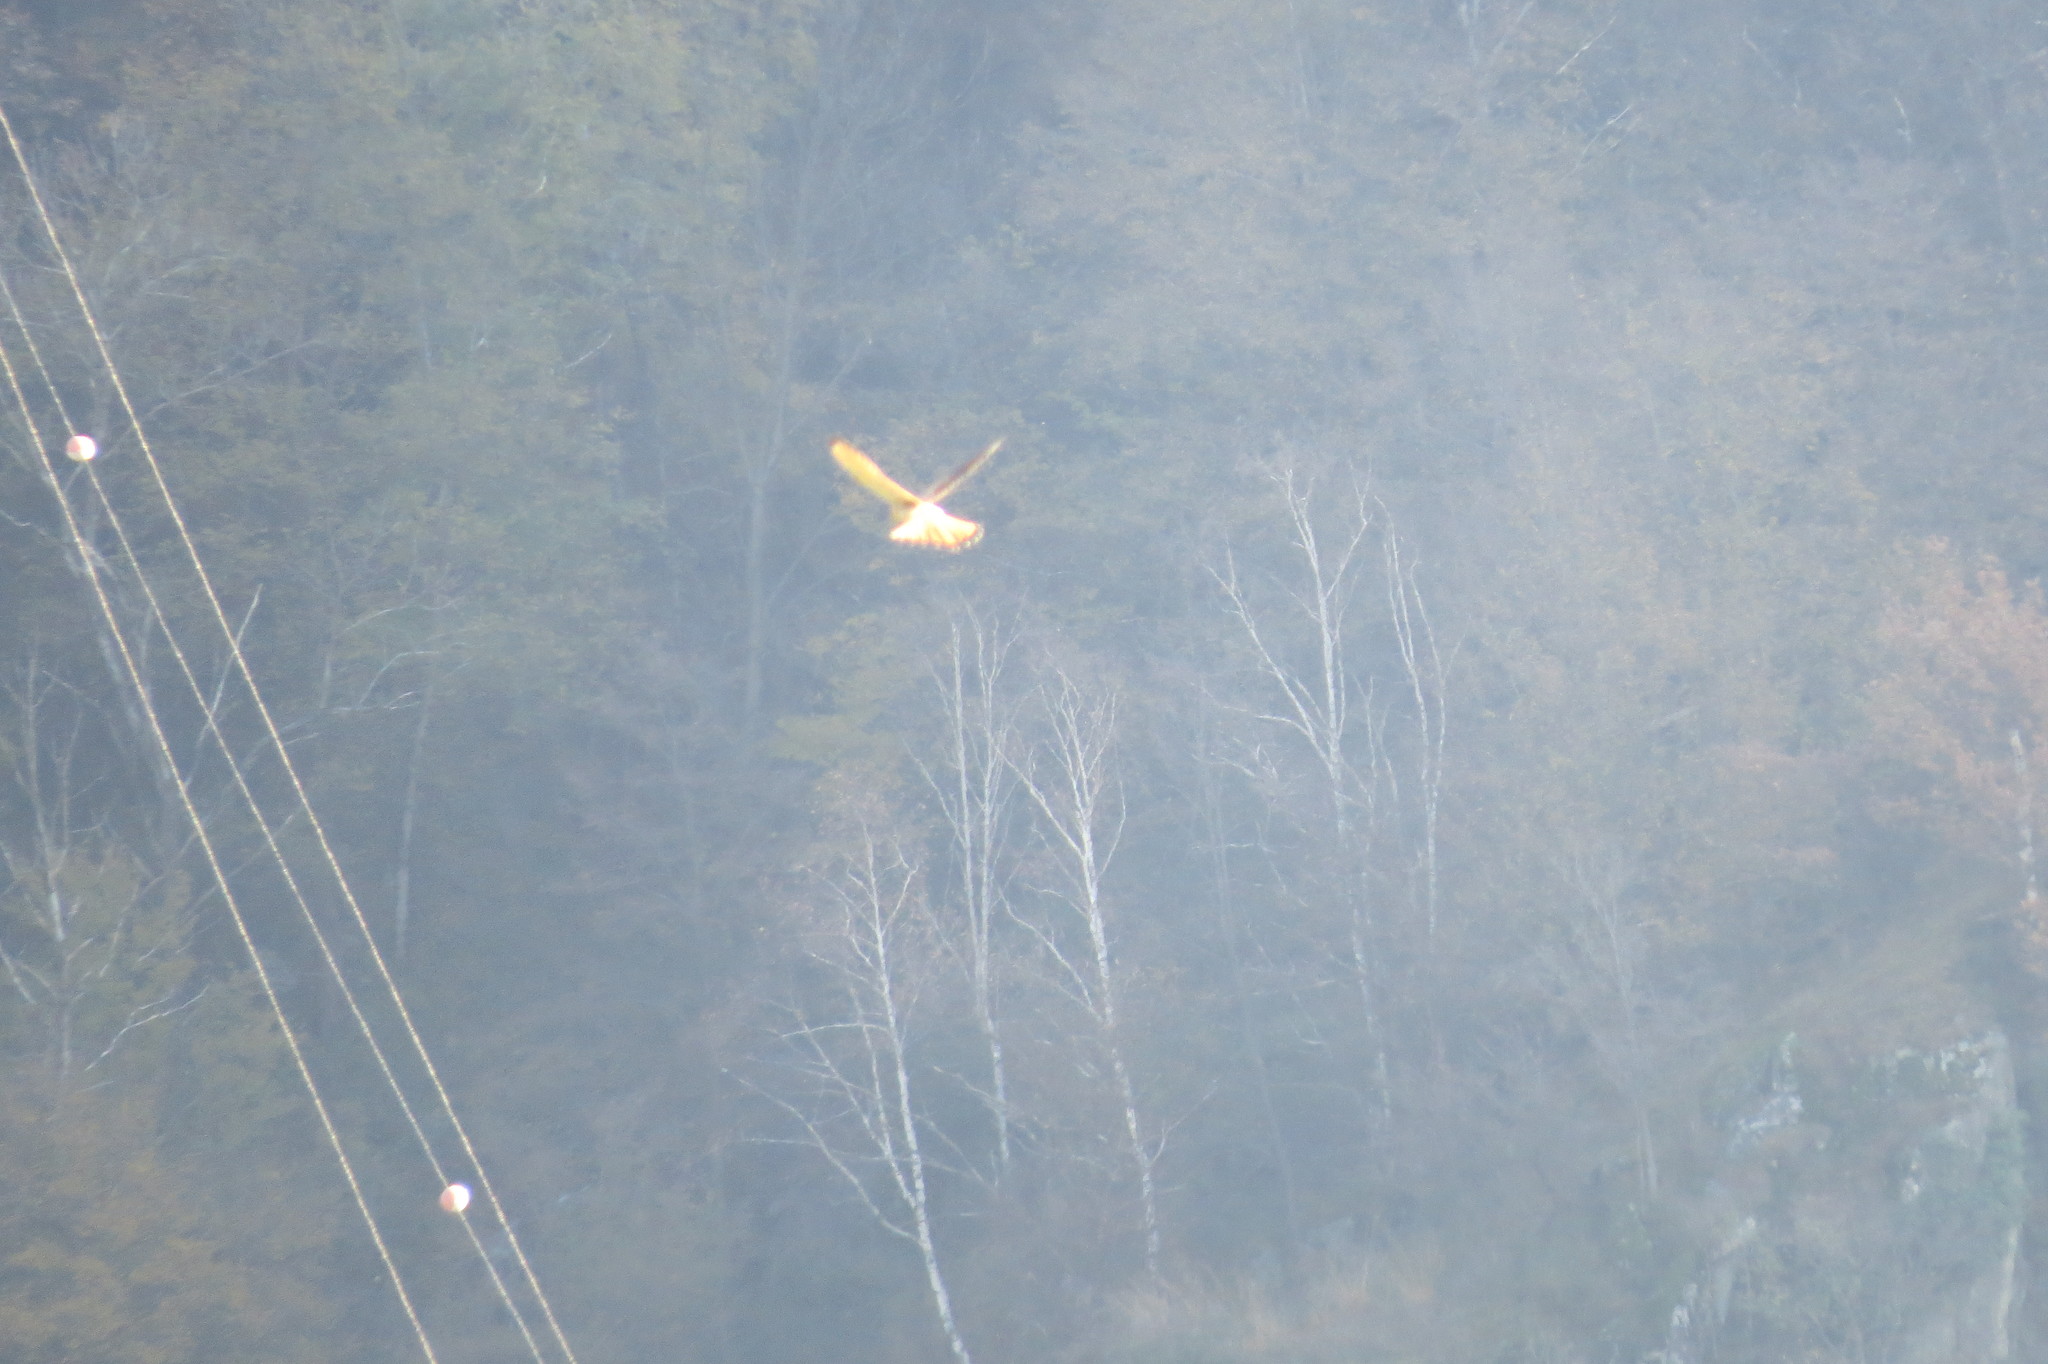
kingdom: Animalia
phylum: Chordata
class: Aves
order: Falconiformes
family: Falconidae
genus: Falco
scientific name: Falco tinnunculus
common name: Common kestrel
